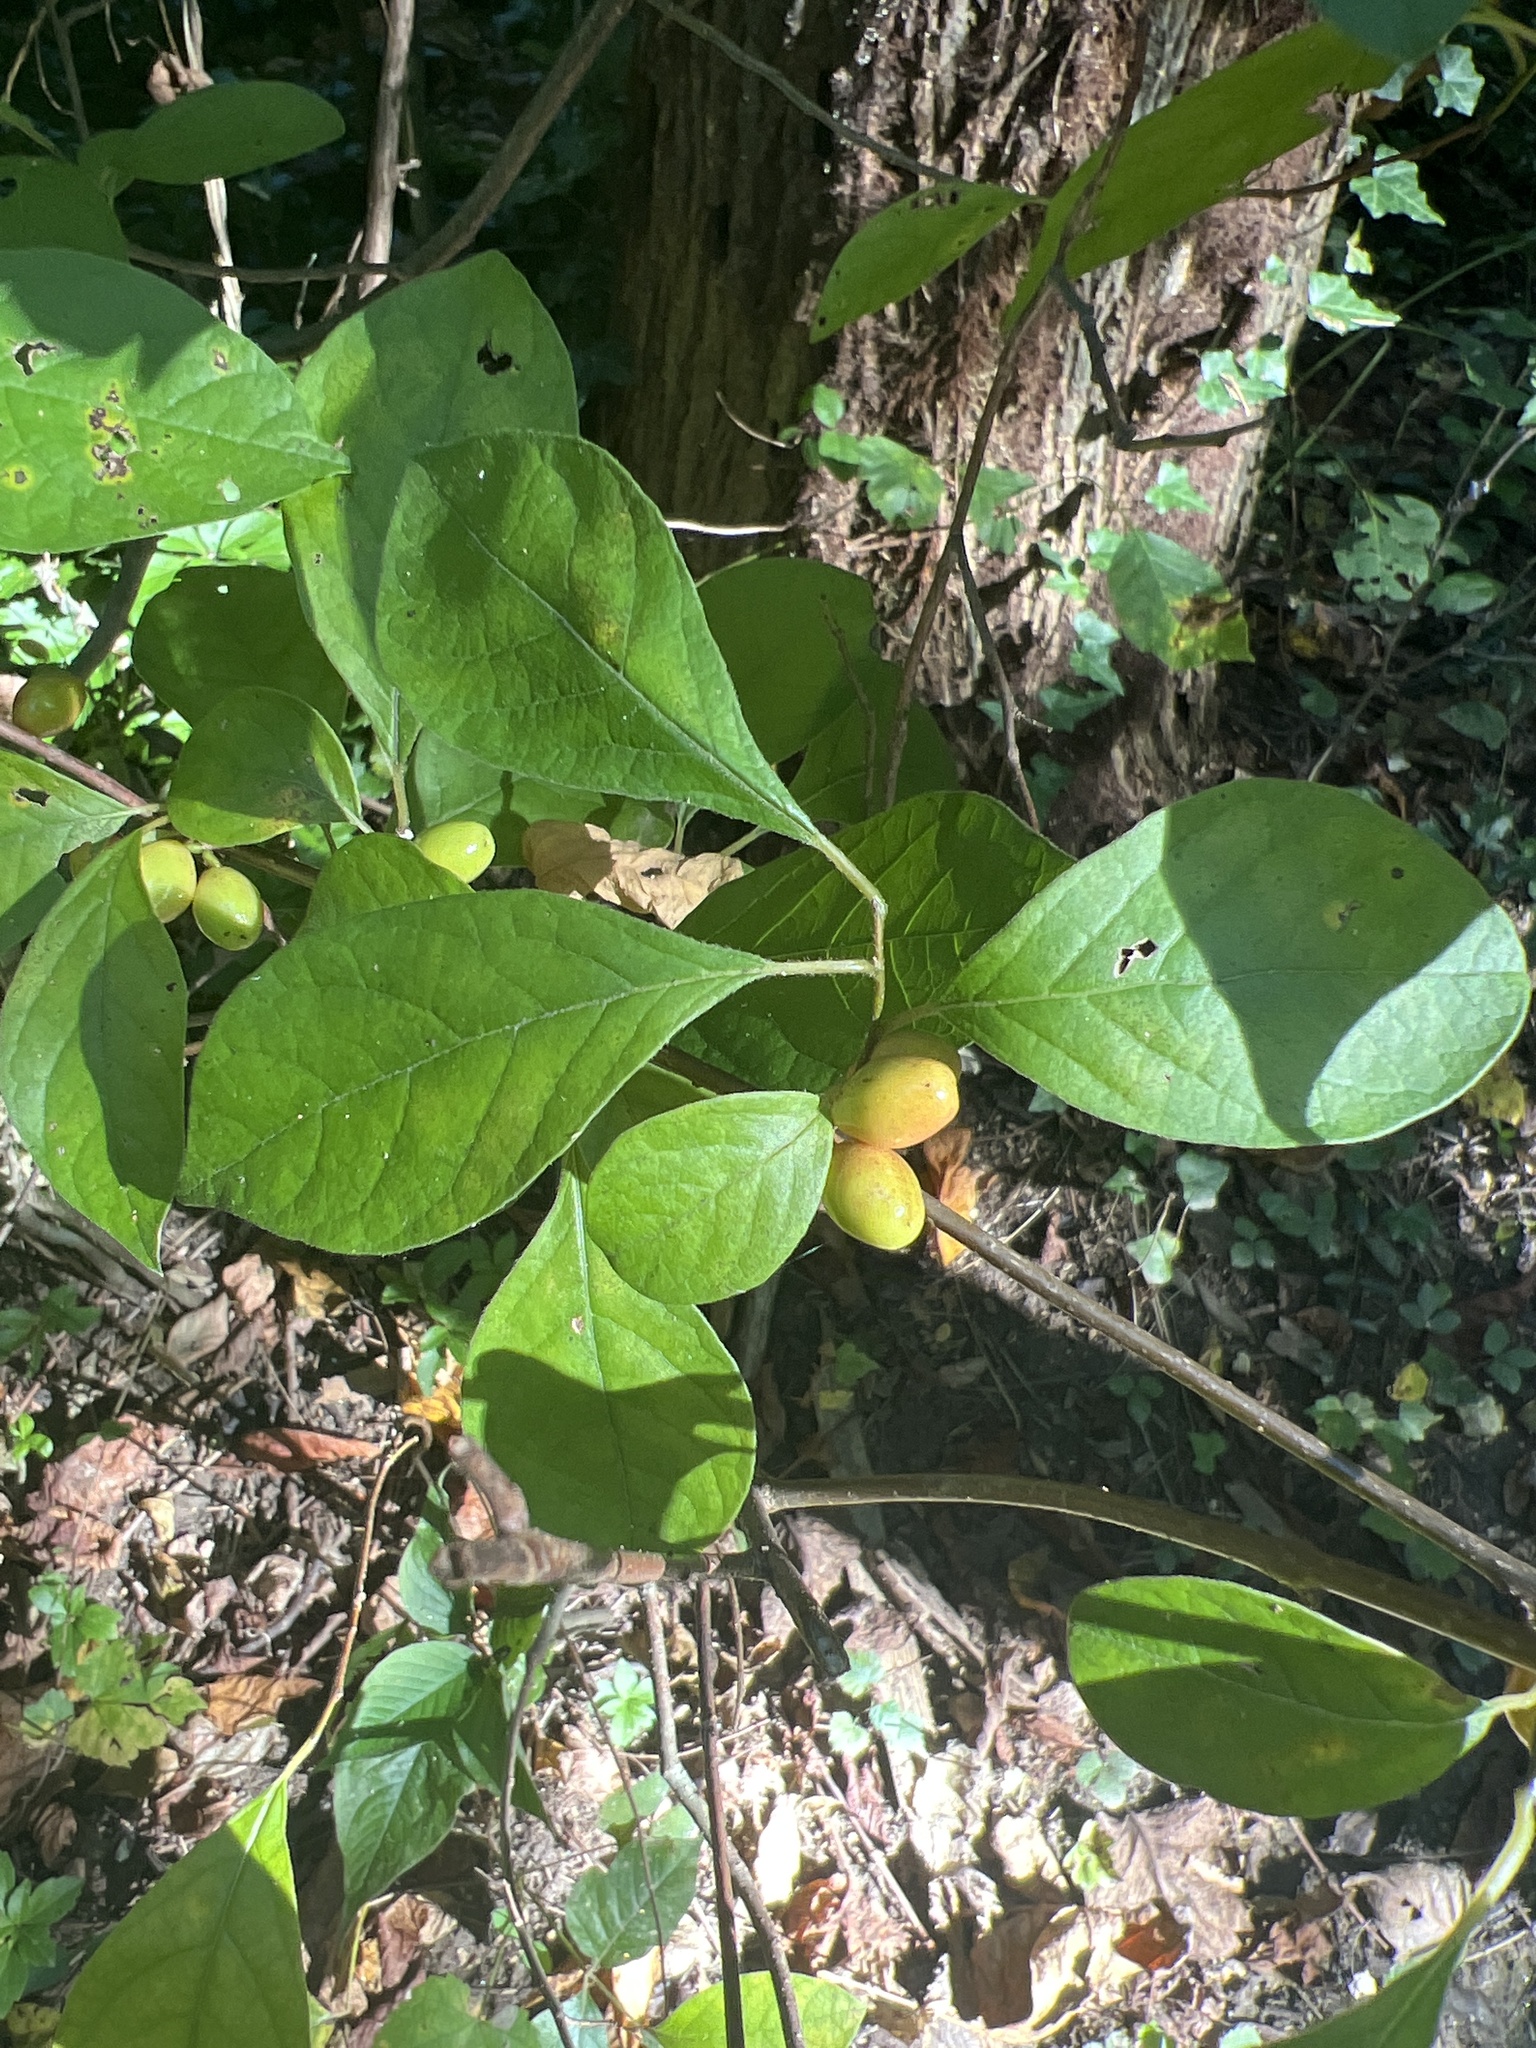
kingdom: Plantae
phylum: Tracheophyta
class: Magnoliopsida
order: Laurales
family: Lauraceae
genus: Lindera
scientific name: Lindera benzoin
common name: Spicebush
